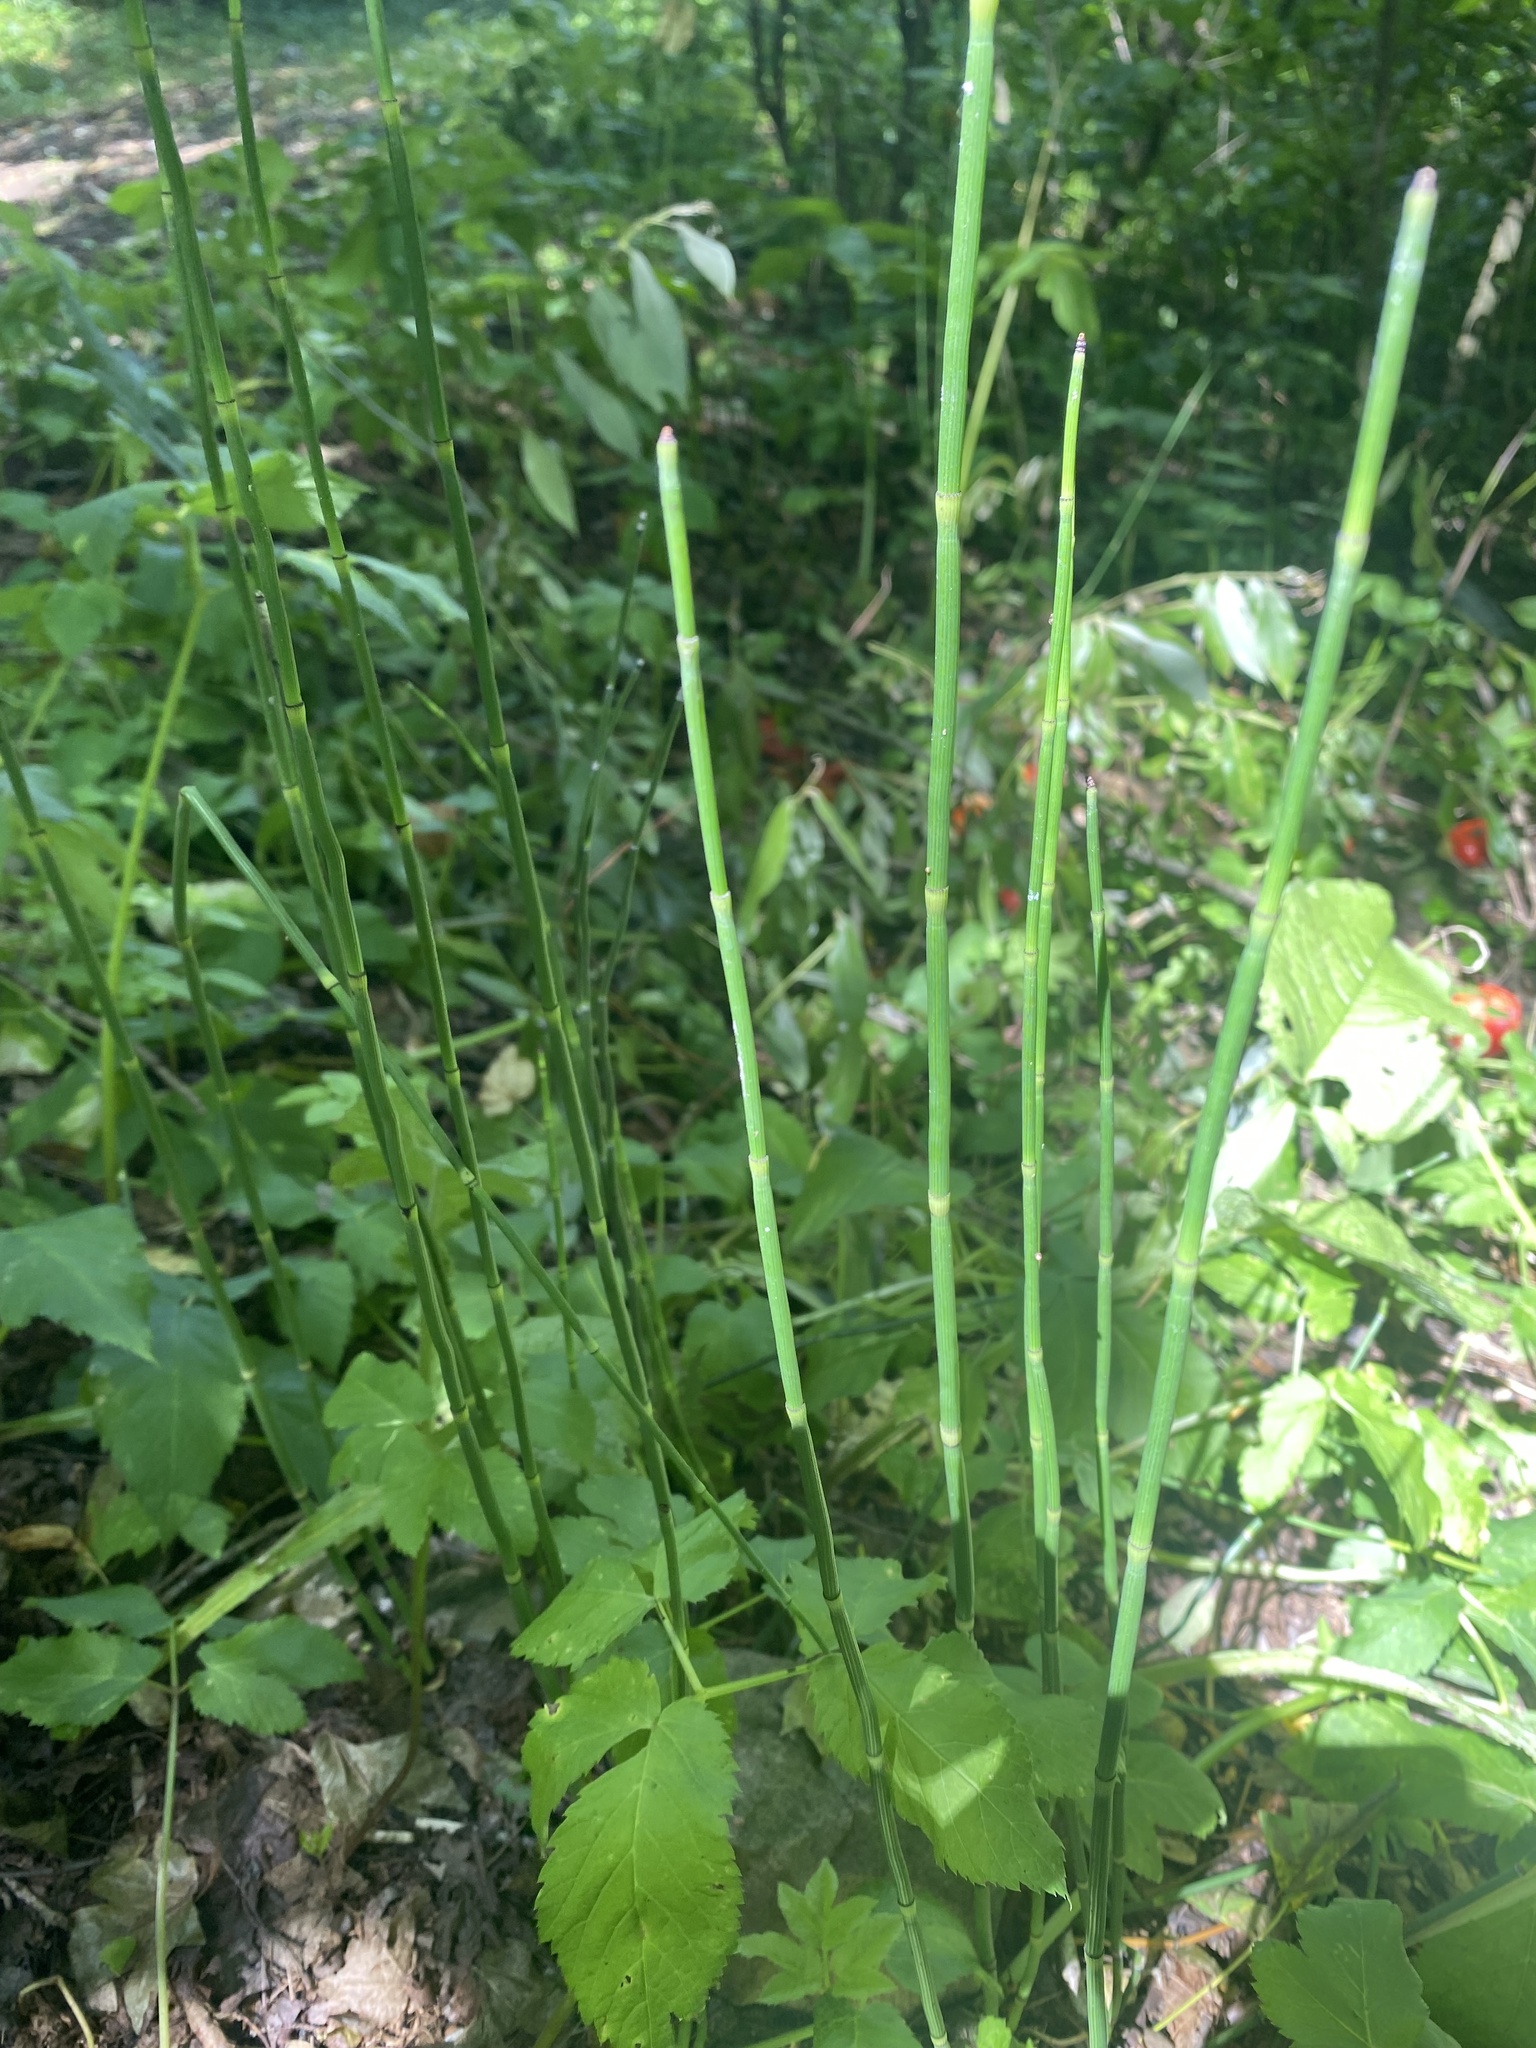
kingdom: Plantae
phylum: Tracheophyta
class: Polypodiopsida
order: Equisetales
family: Equisetaceae
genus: Equisetum
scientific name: Equisetum hyemale
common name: Rough horsetail
